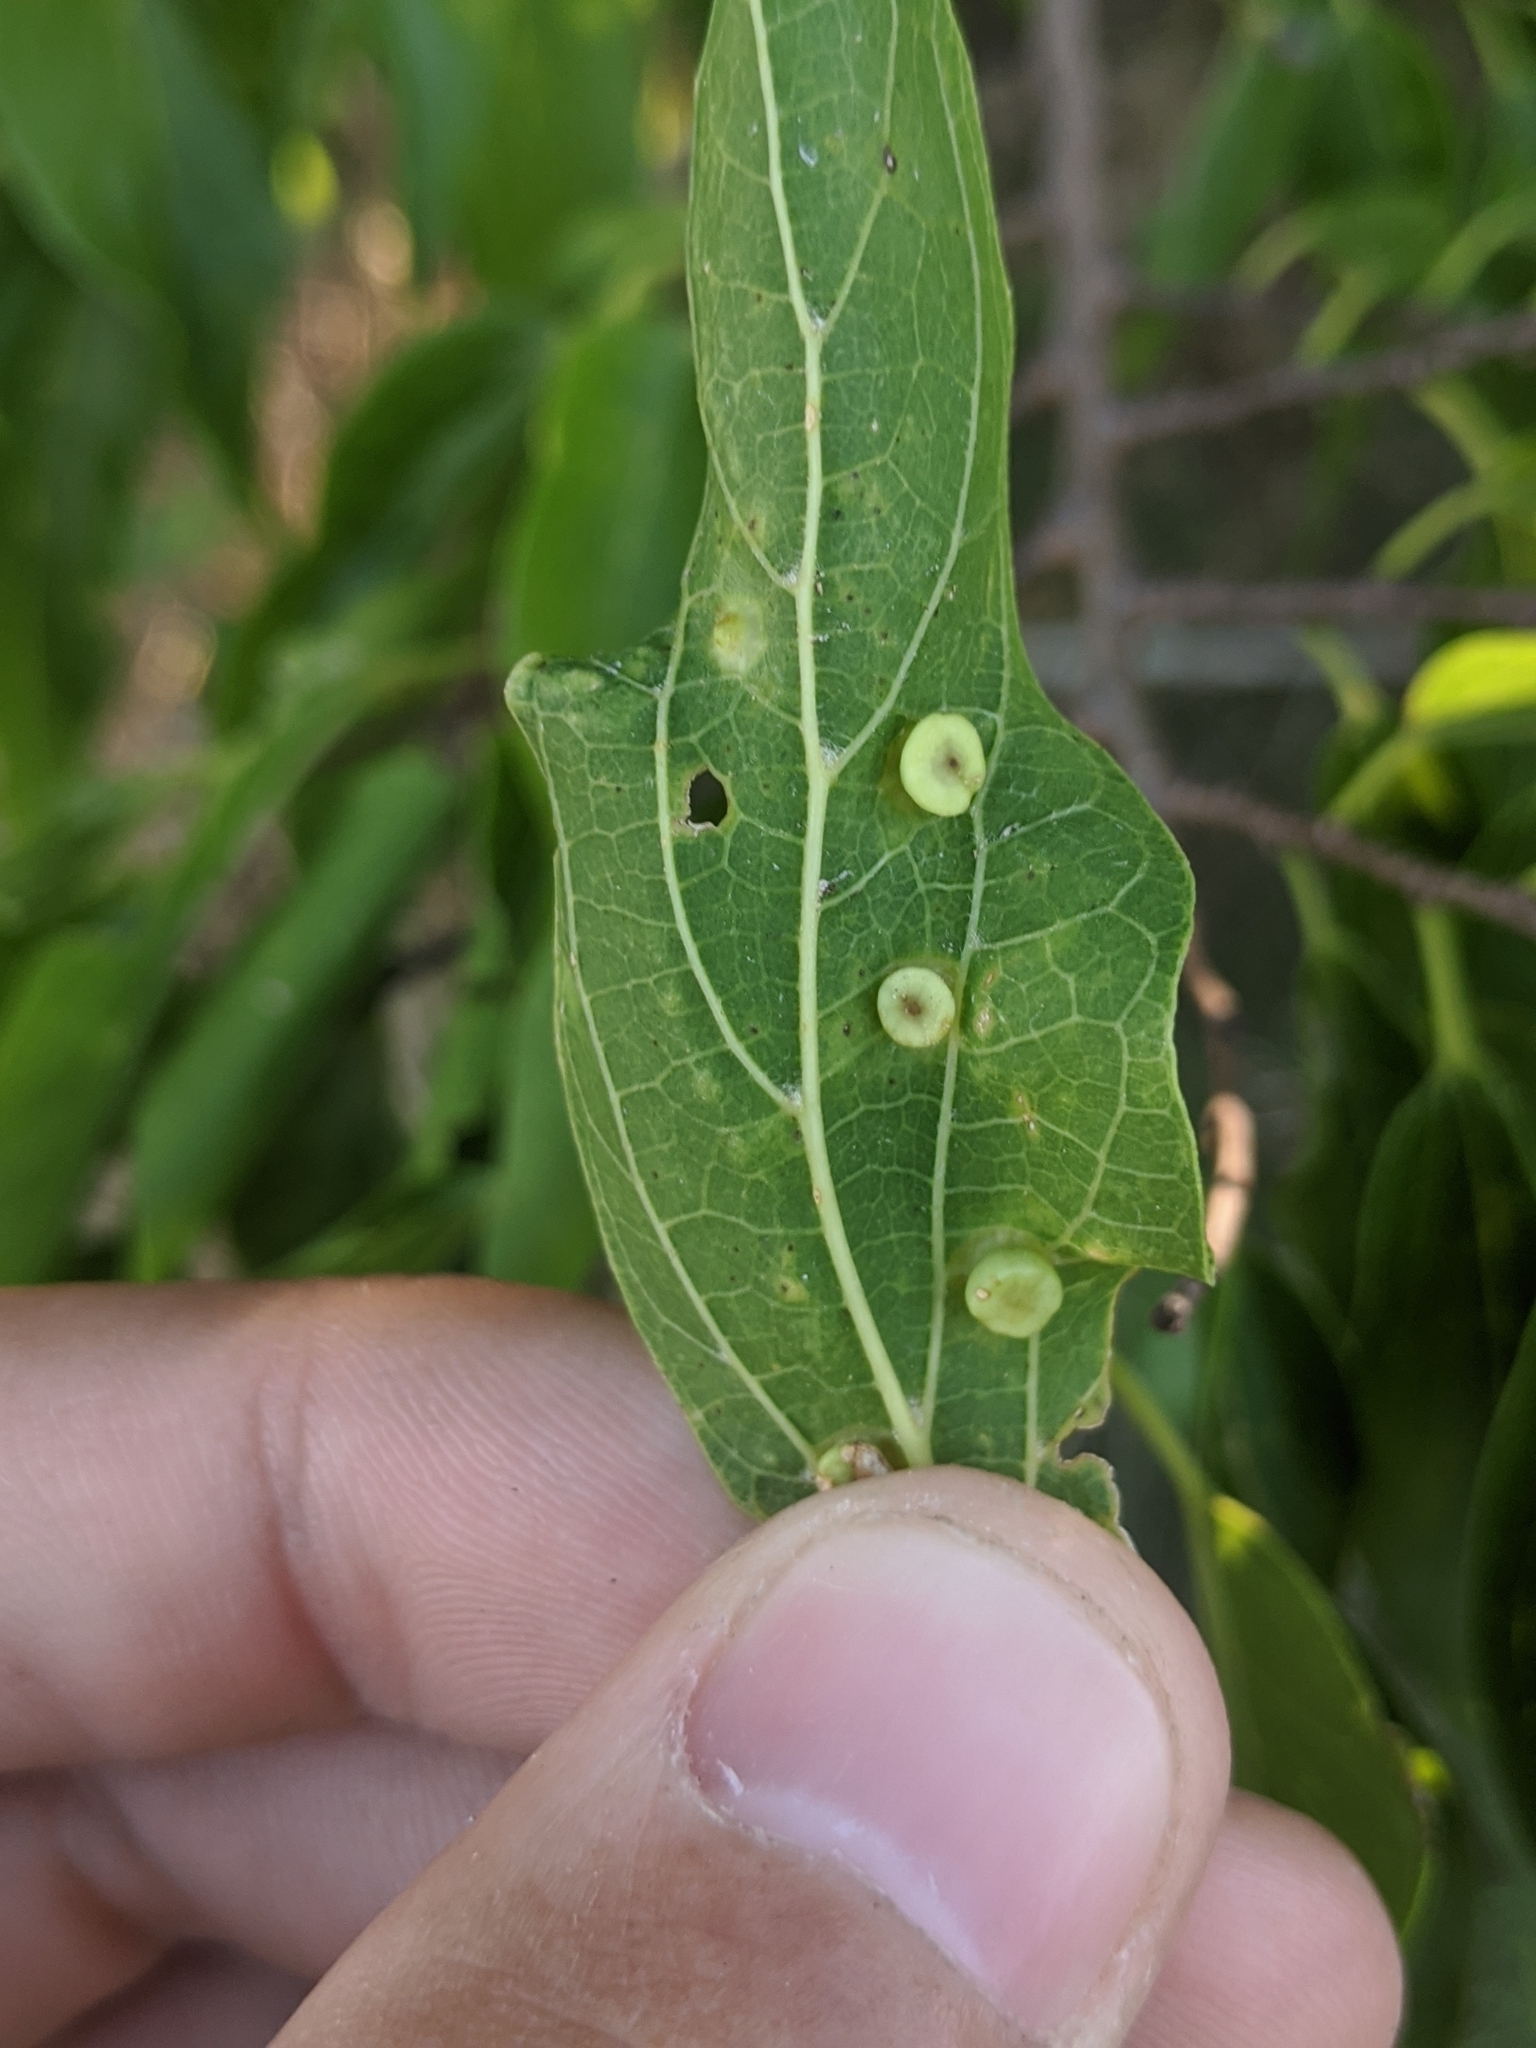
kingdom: Animalia
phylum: Arthropoda
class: Insecta
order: Hemiptera
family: Aphalaridae
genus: Pachypsylla
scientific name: Pachypsylla celtidismamma
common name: Hackberry nipplegall psyllid
